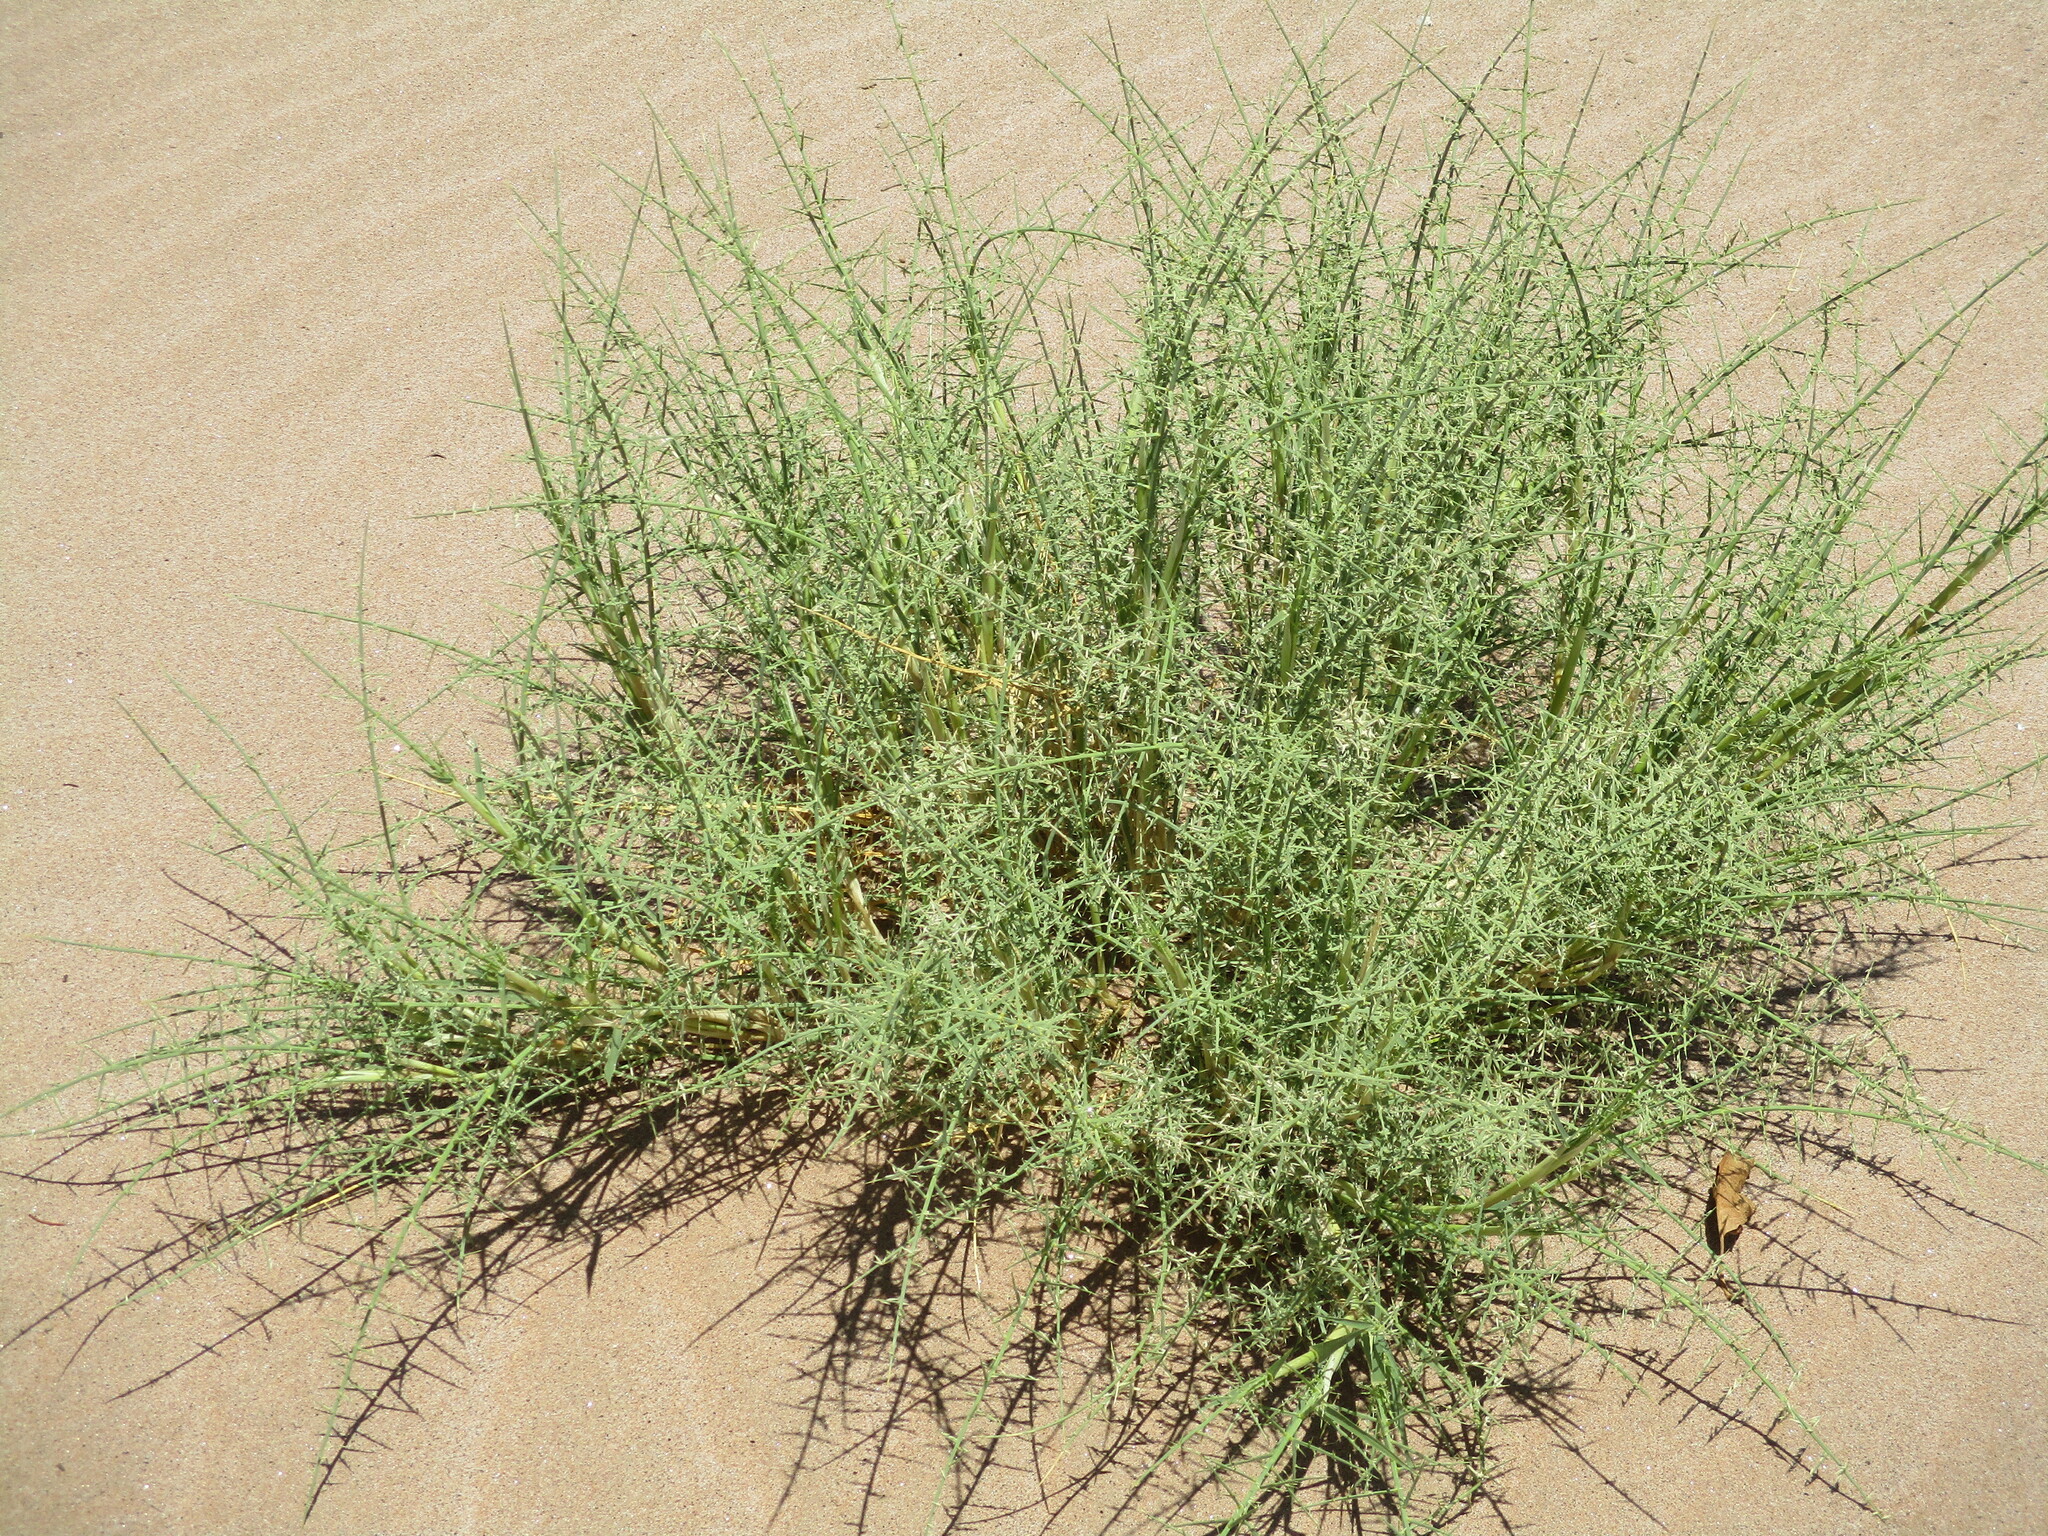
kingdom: Plantae
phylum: Tracheophyta
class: Liliopsida
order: Poales
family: Poaceae
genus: Cladoraphis
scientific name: Cladoraphis spinosa
